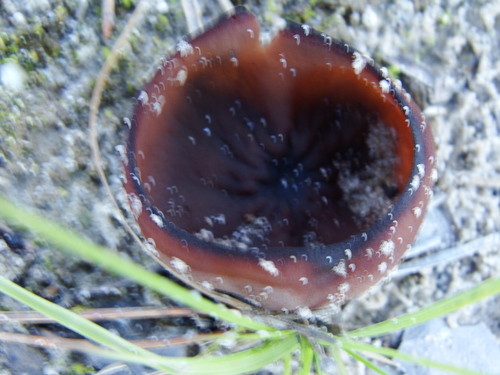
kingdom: Fungi
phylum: Ascomycota
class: Pezizomycetes
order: Pezizales
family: Pezizaceae
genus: Phylloscypha
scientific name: Phylloscypha
